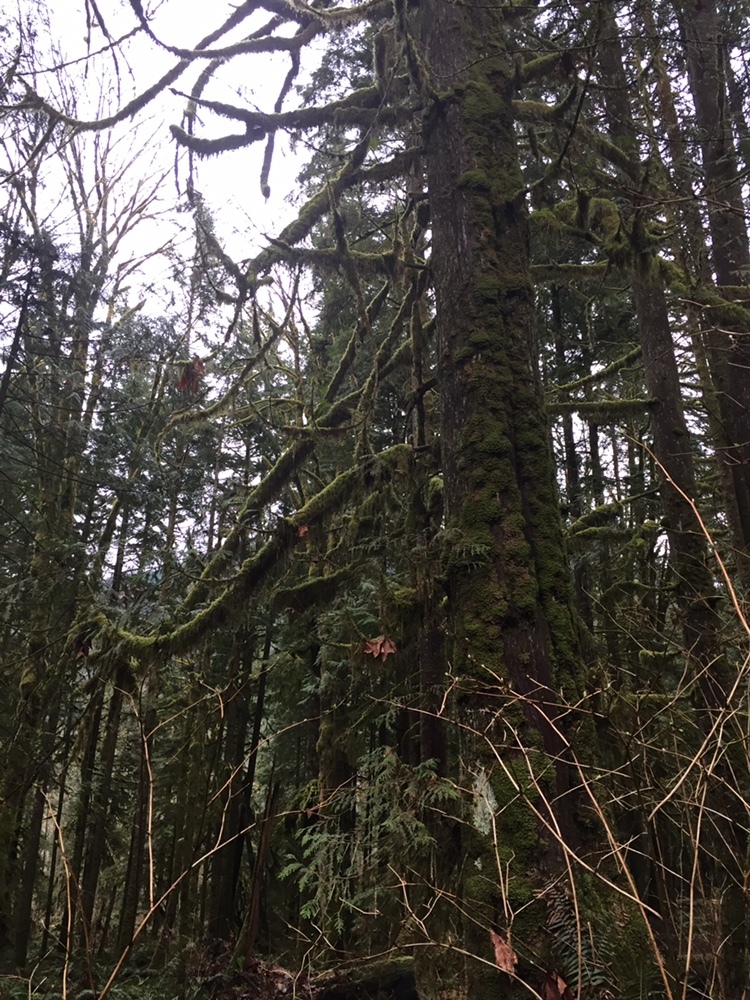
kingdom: Plantae
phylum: Tracheophyta
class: Pinopsida
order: Pinales
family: Cupressaceae
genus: Thuja
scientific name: Thuja plicata
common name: Western red-cedar
